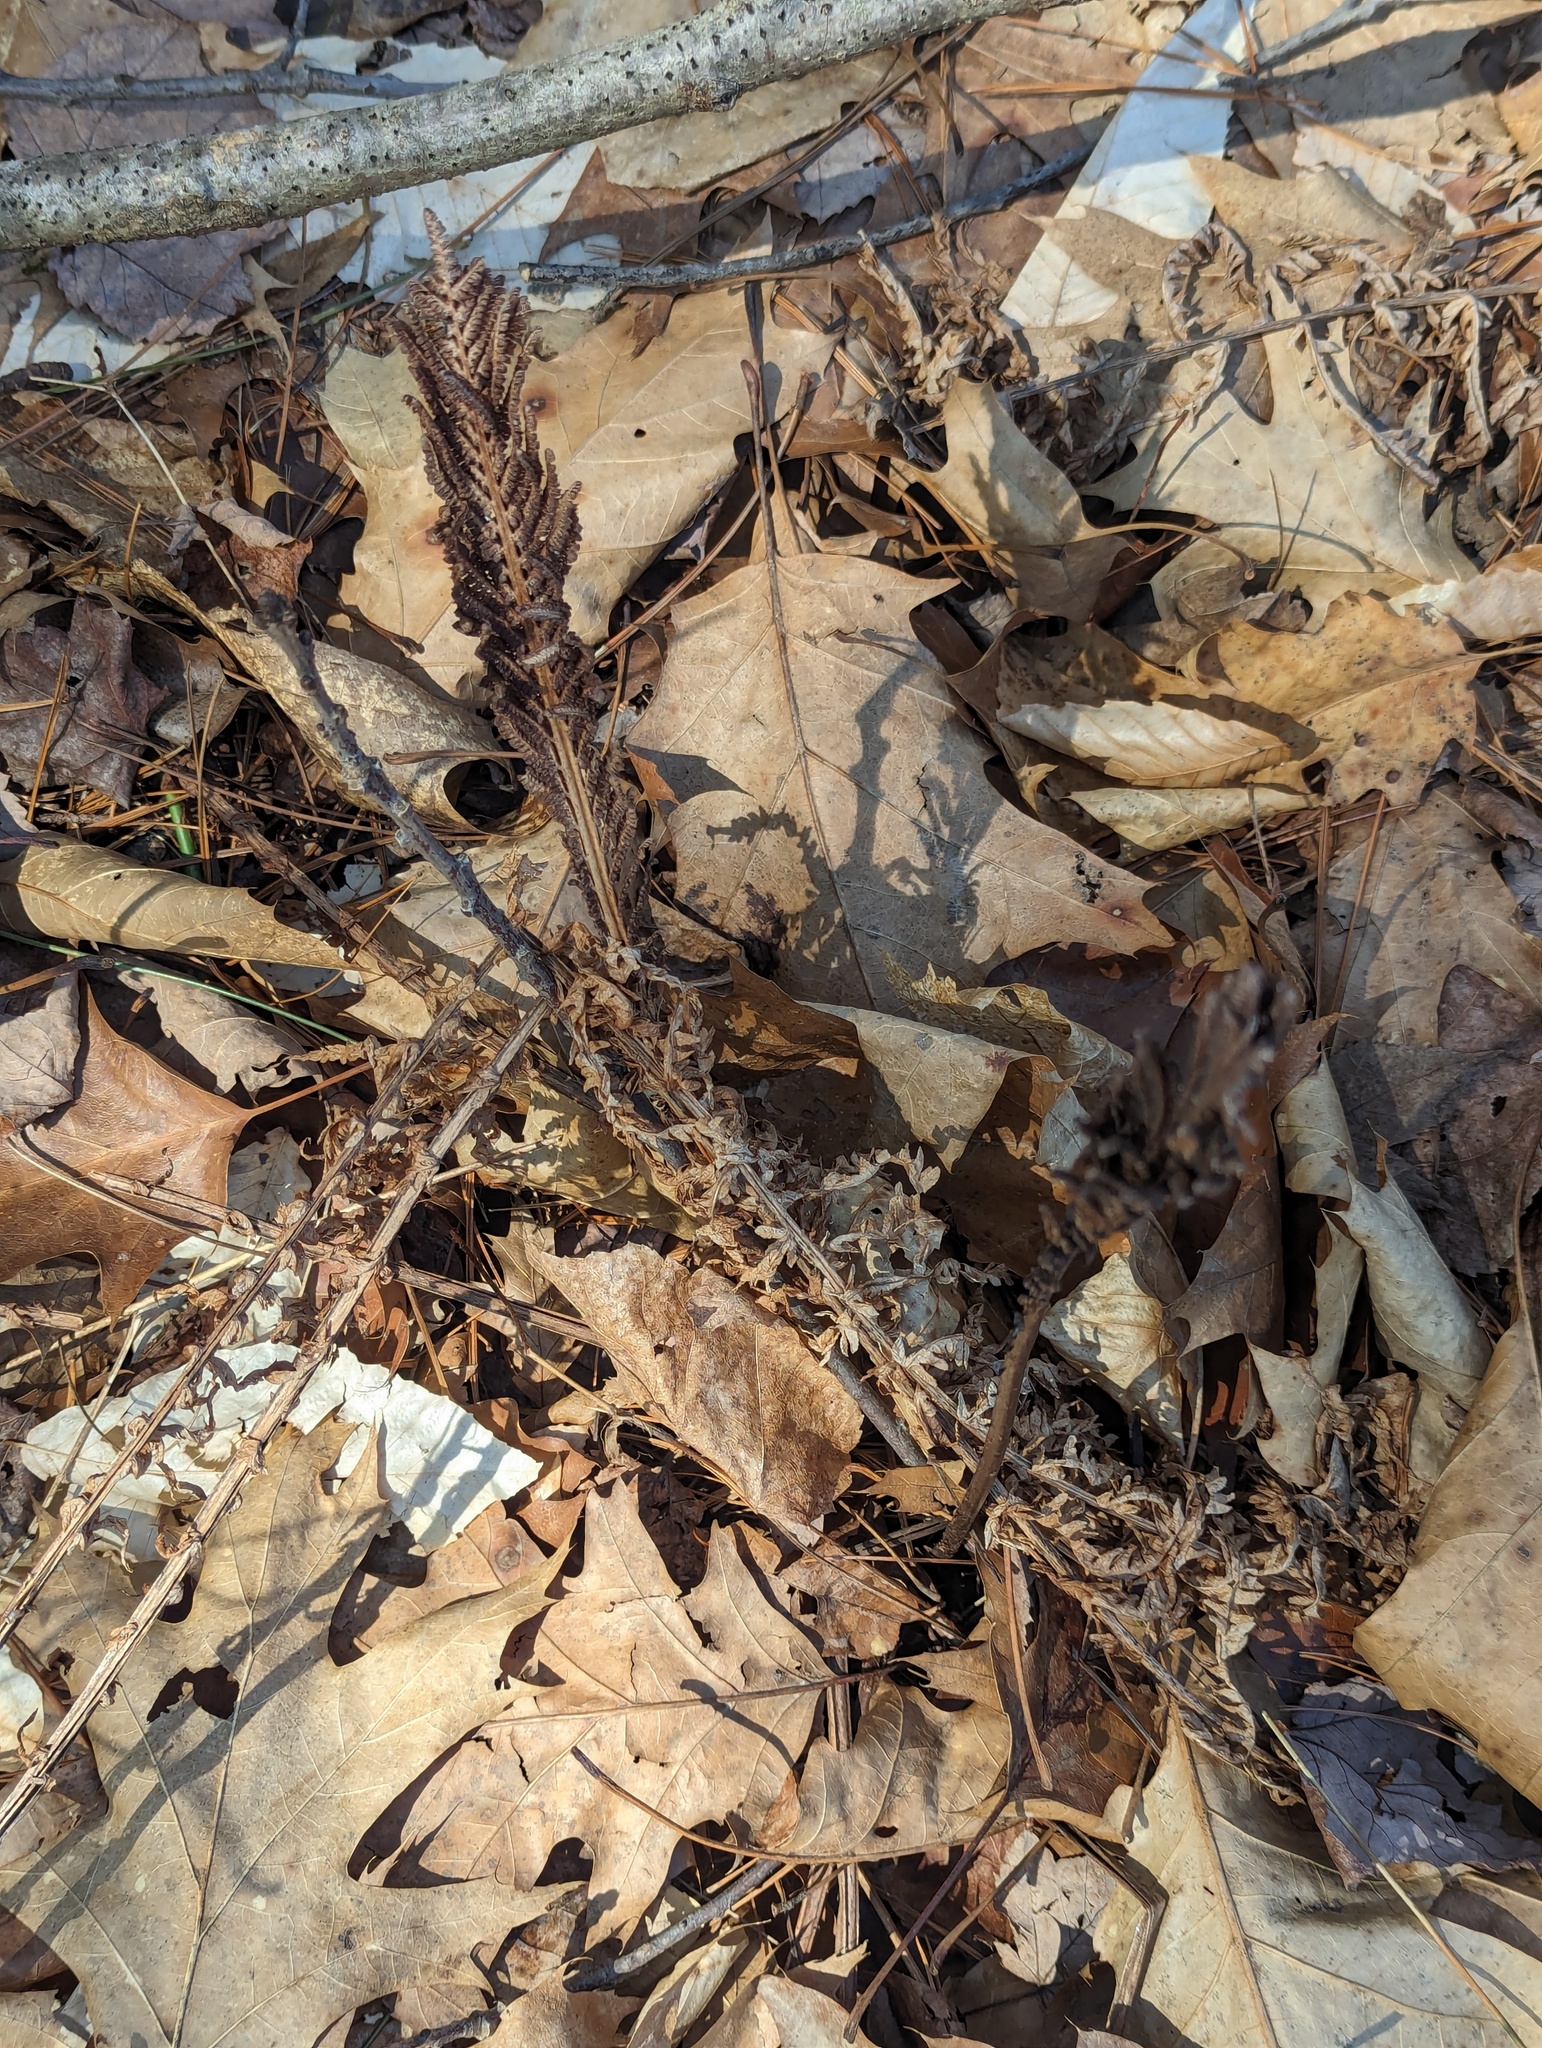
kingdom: Plantae
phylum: Tracheophyta
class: Polypodiopsida
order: Polypodiales
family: Onocleaceae
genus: Matteuccia
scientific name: Matteuccia struthiopteris
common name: Ostrich fern
